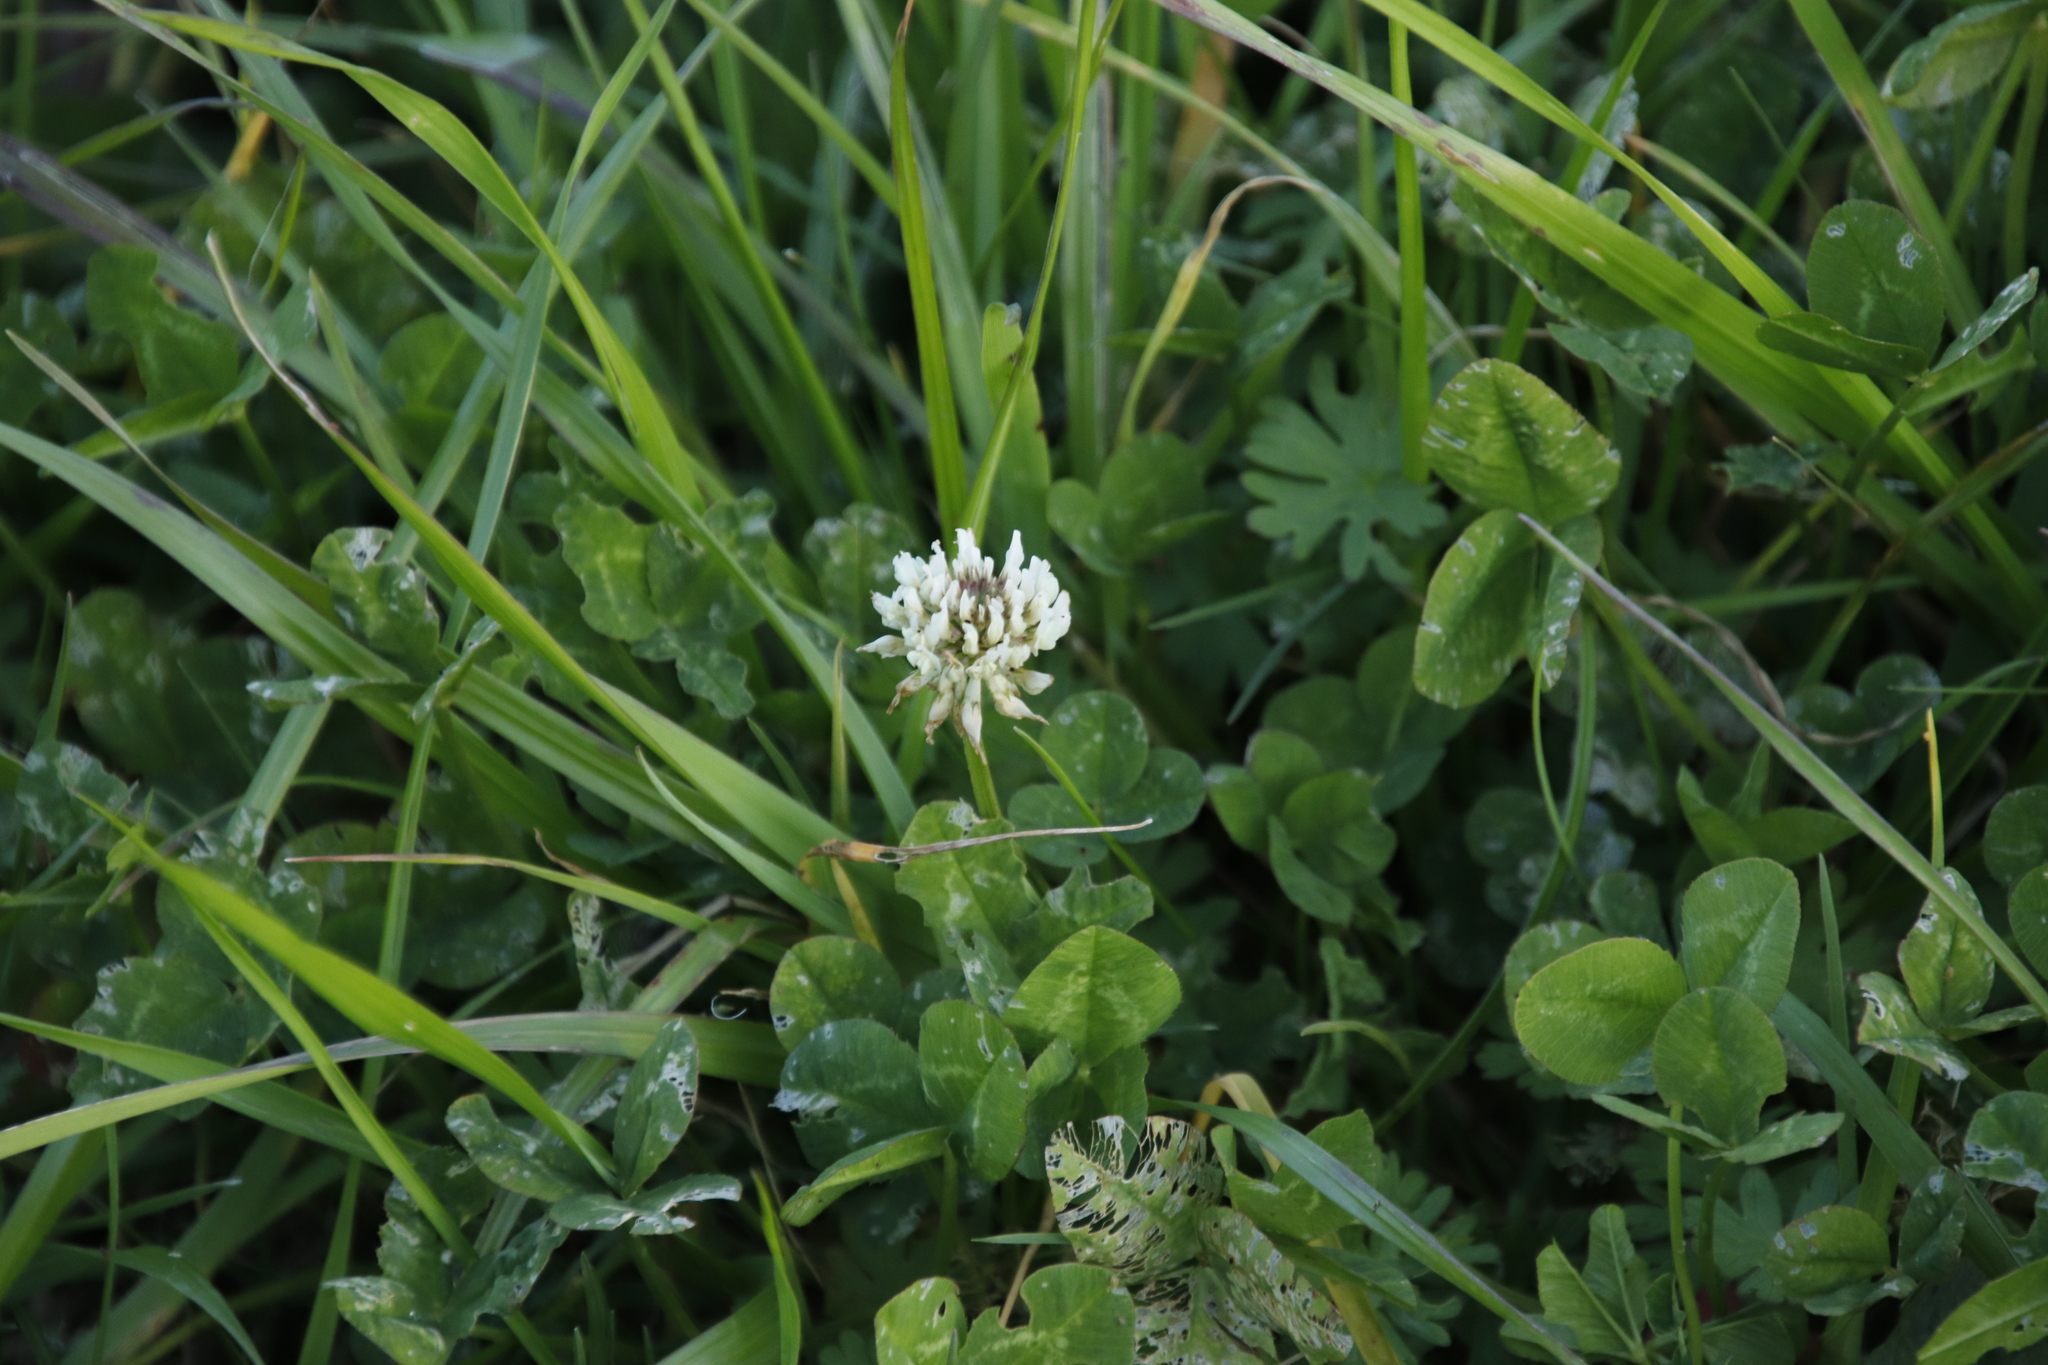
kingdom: Plantae
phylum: Tracheophyta
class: Magnoliopsida
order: Fabales
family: Fabaceae
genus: Trifolium
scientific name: Trifolium repens
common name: White clover
